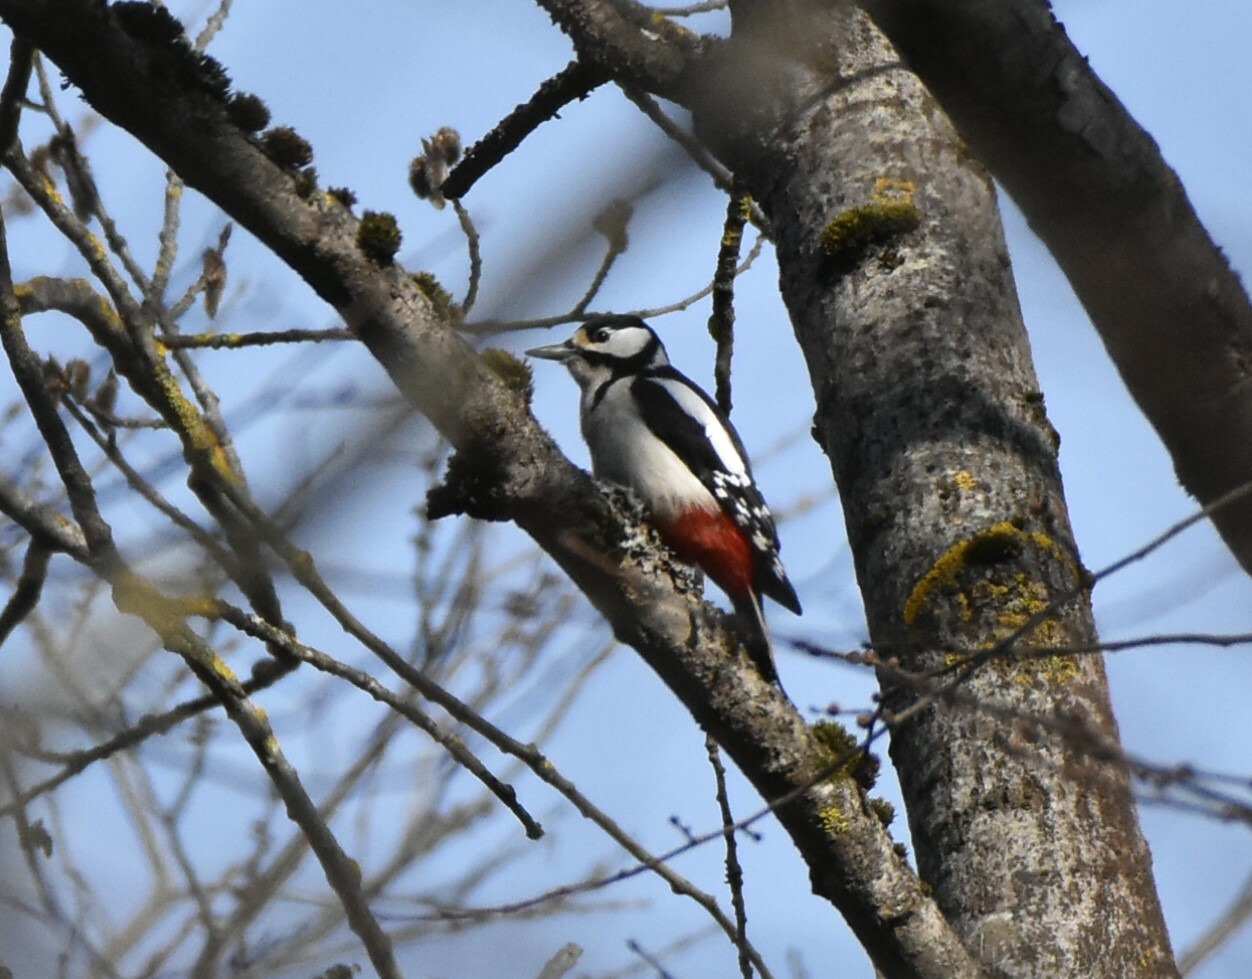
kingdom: Animalia
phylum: Chordata
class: Aves
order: Piciformes
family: Picidae
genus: Dendrocopos
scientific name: Dendrocopos major
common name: Great spotted woodpecker
